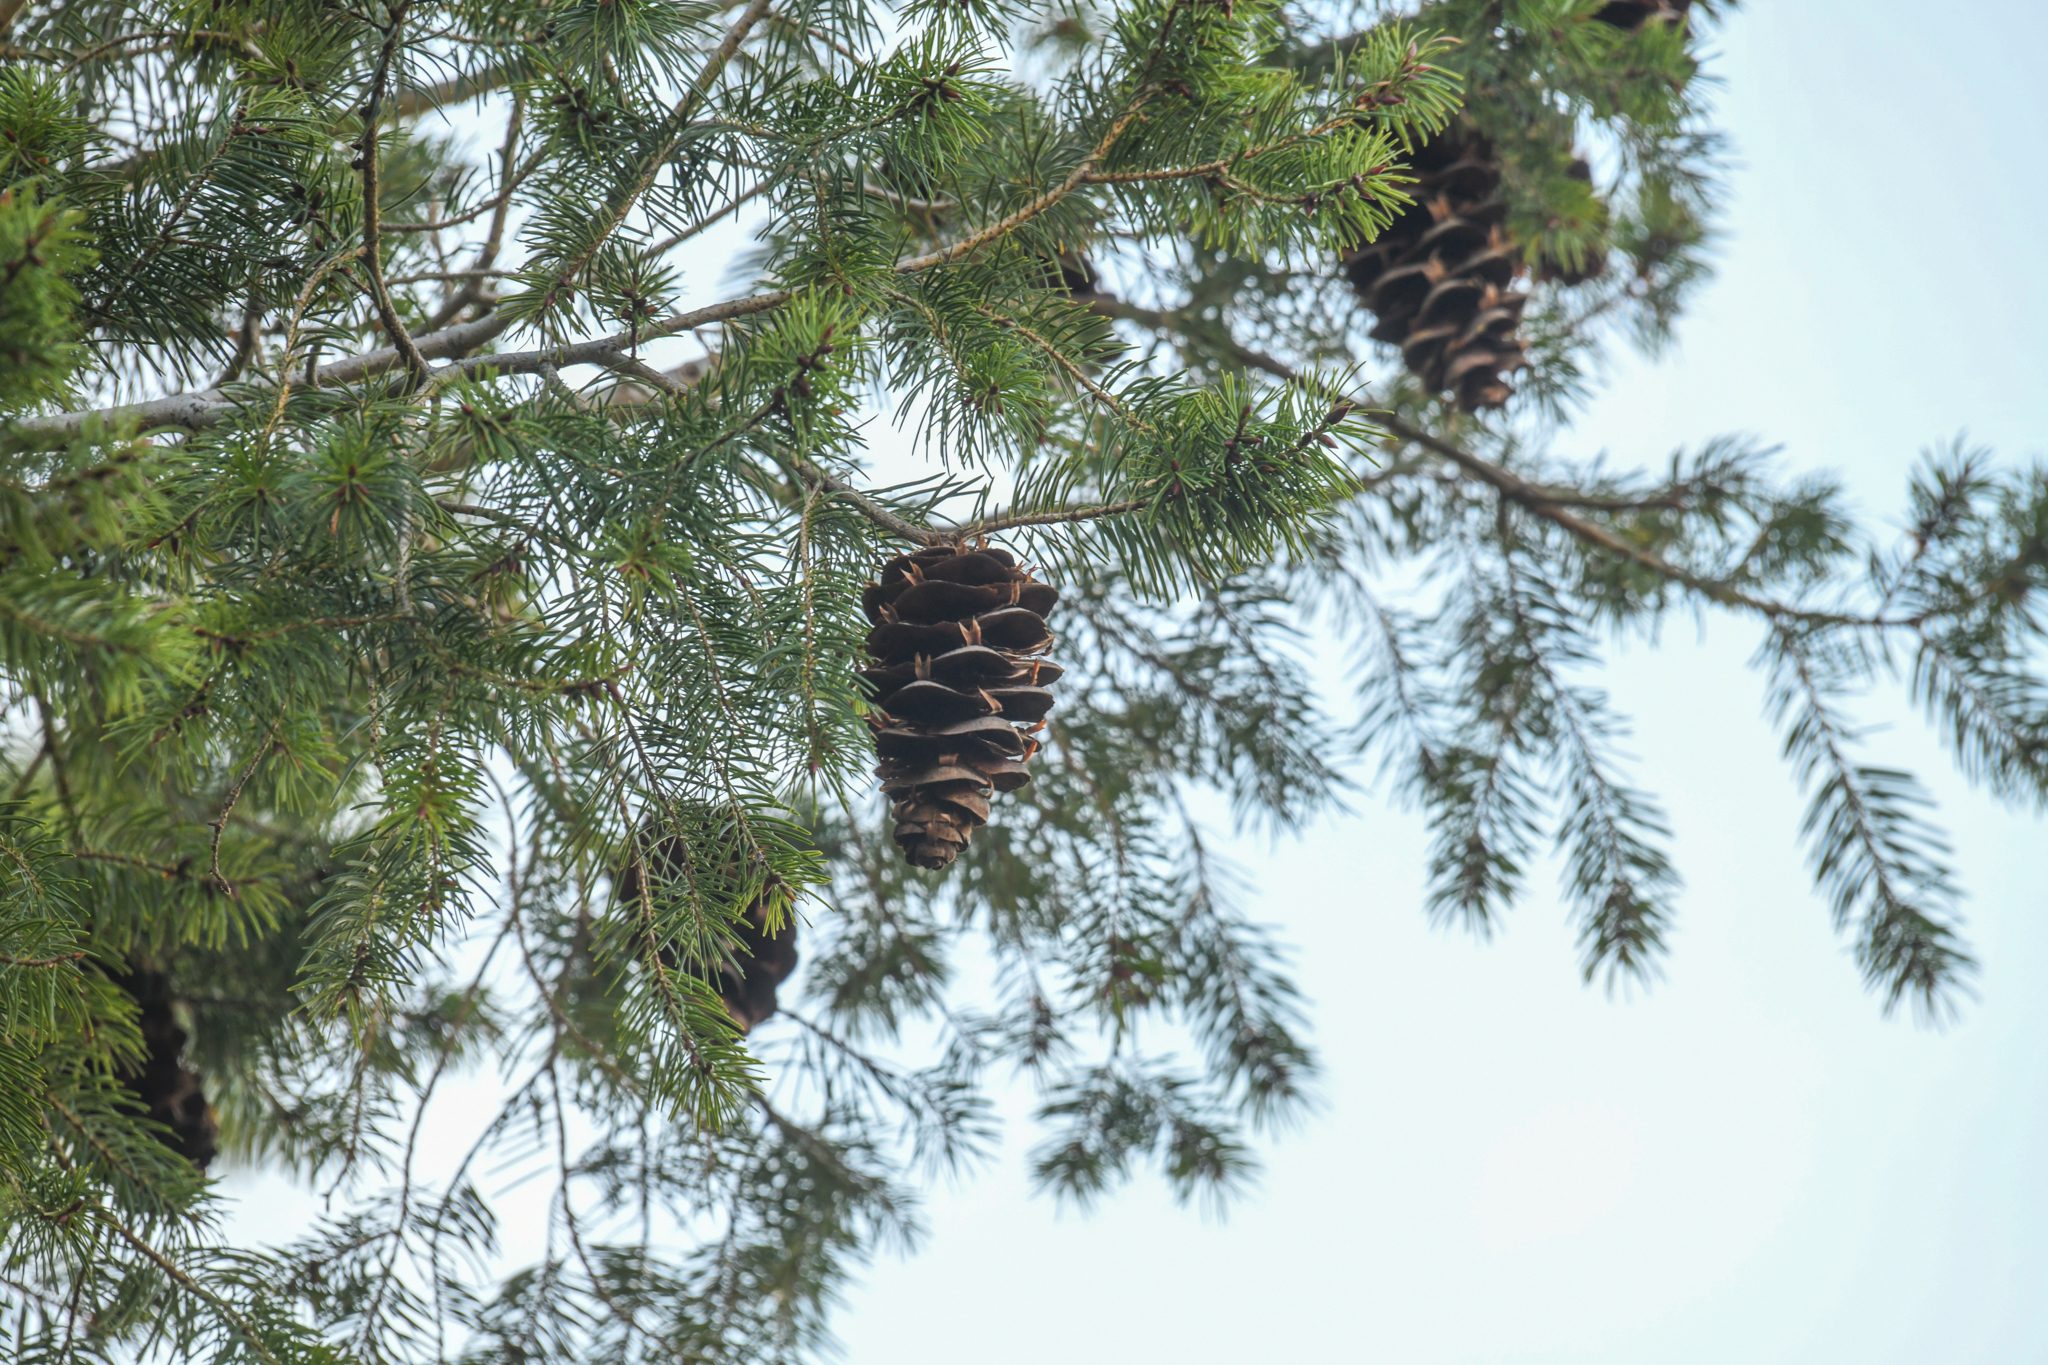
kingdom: Plantae
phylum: Tracheophyta
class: Pinopsida
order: Pinales
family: Pinaceae
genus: Pseudotsuga
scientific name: Pseudotsuga macrocarpa
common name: Big-cone douglas-fir
